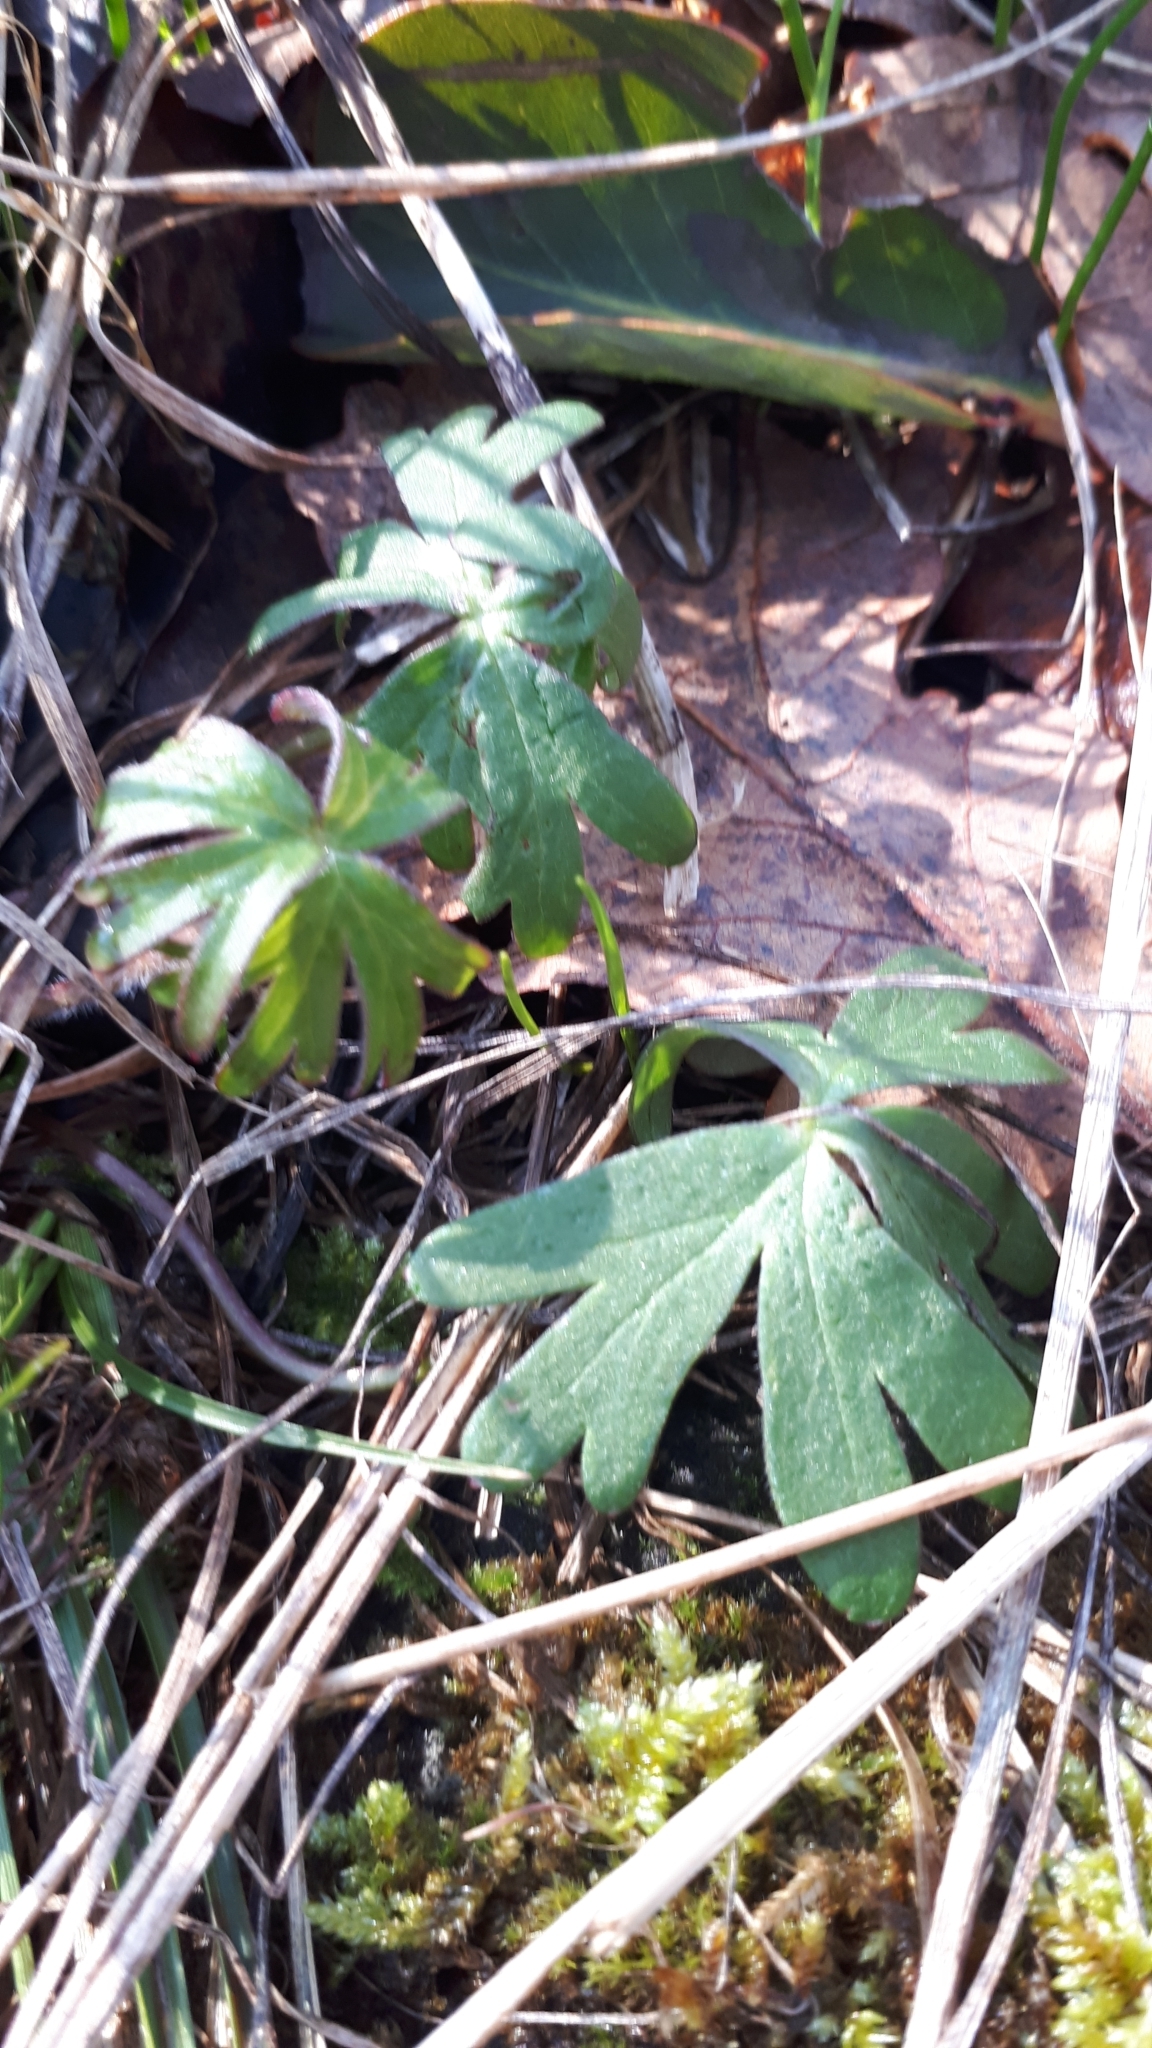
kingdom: Plantae
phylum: Tracheophyta
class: Magnoliopsida
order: Ranunculales
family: Ranunculaceae
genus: Delphinium
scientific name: Delphinium menziesii
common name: Menzies's larkspur
